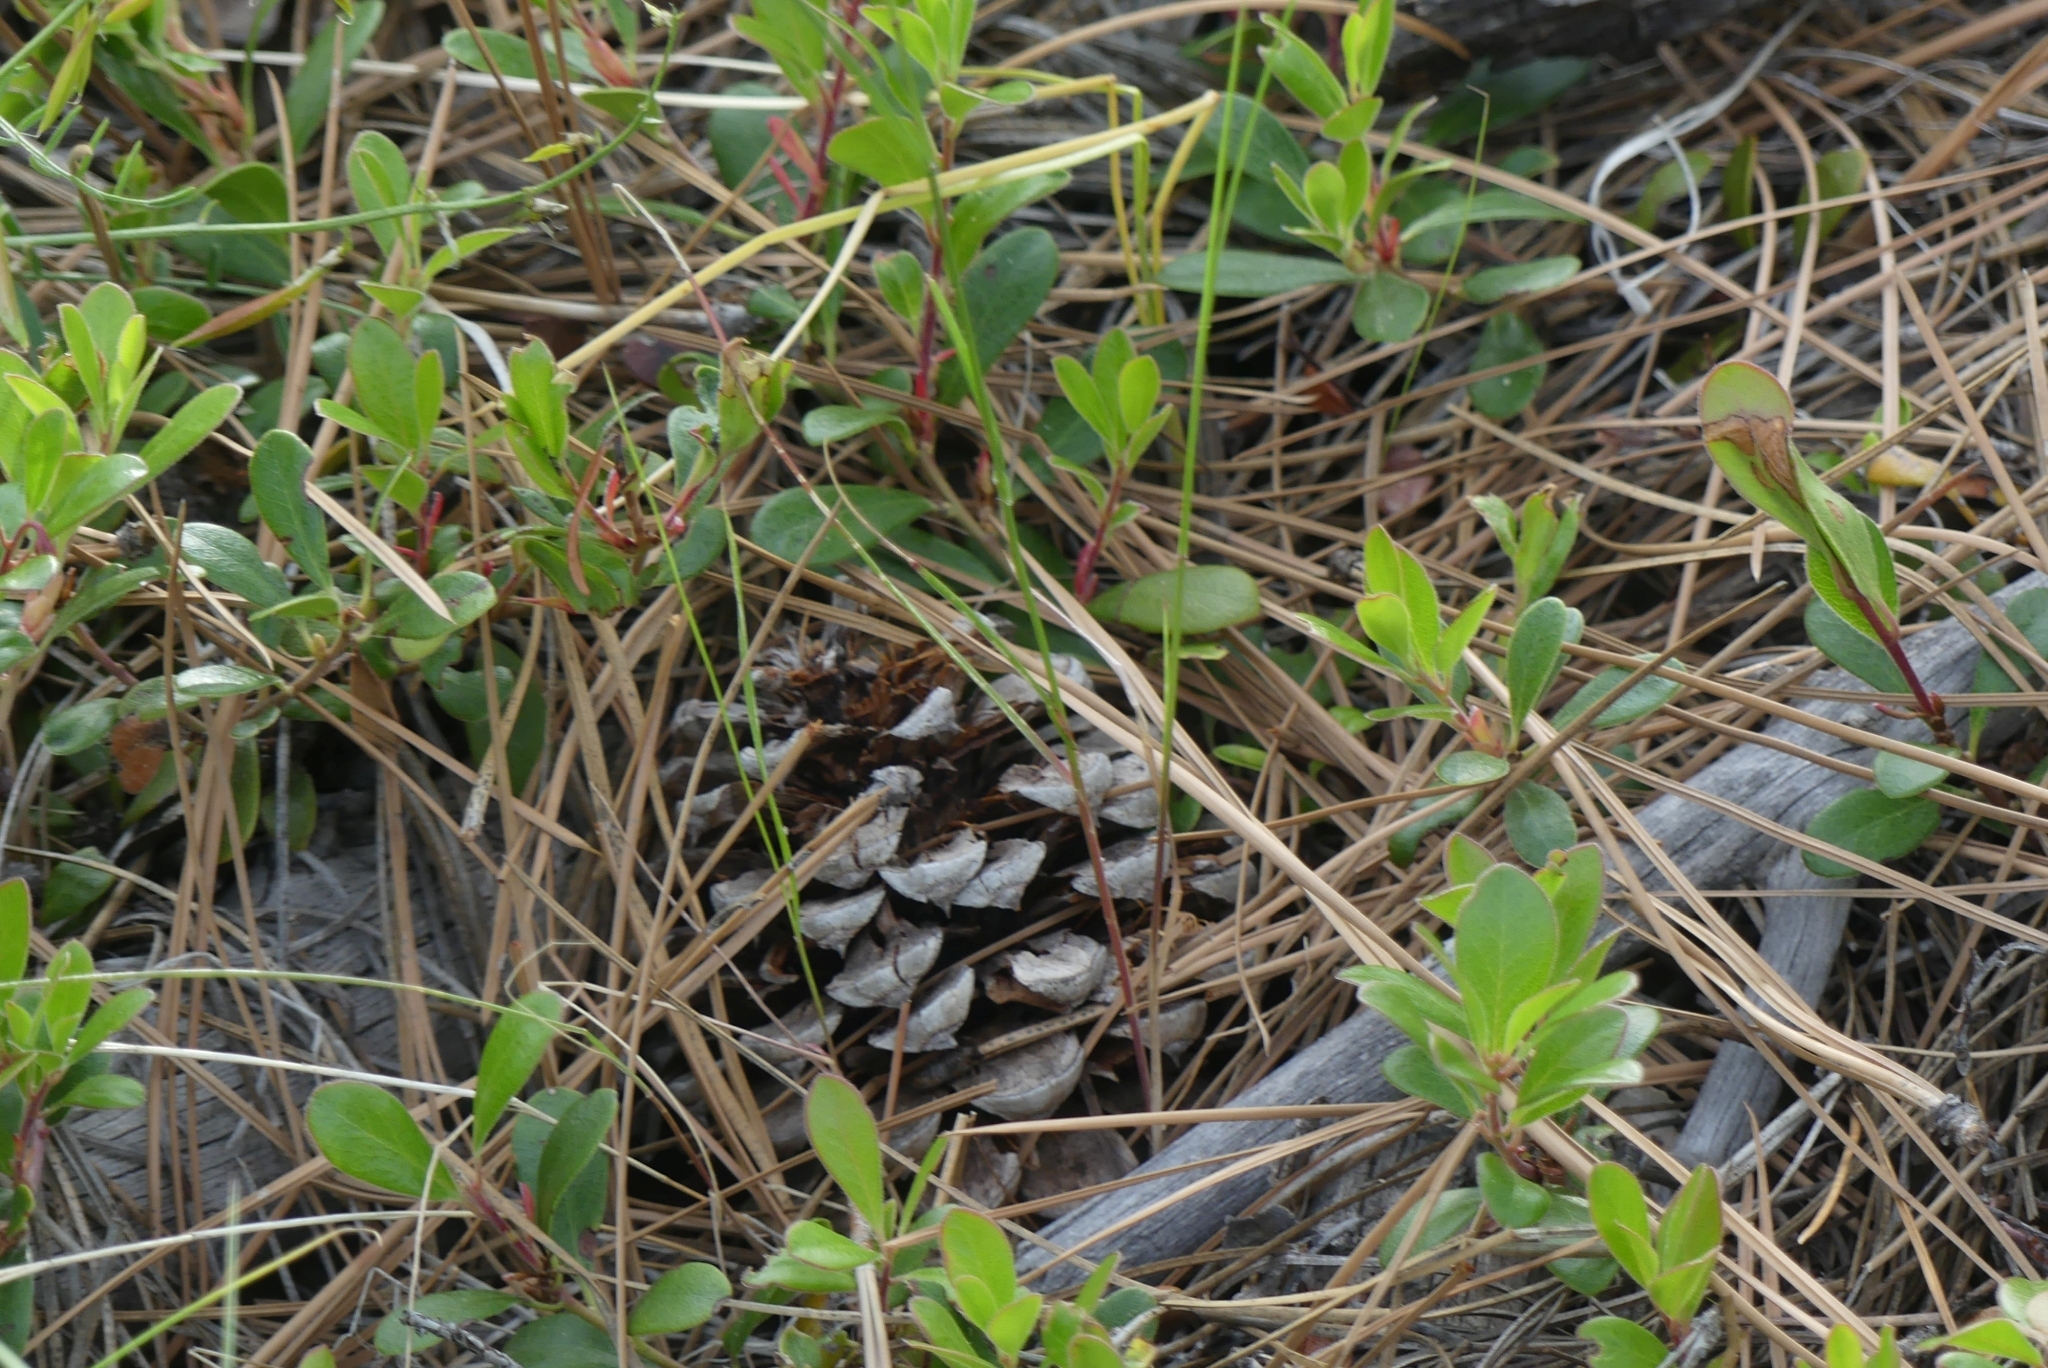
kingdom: Plantae
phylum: Tracheophyta
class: Pinopsida
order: Pinales
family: Pinaceae
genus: Pinus
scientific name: Pinus ponderosa
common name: Western yellow-pine
